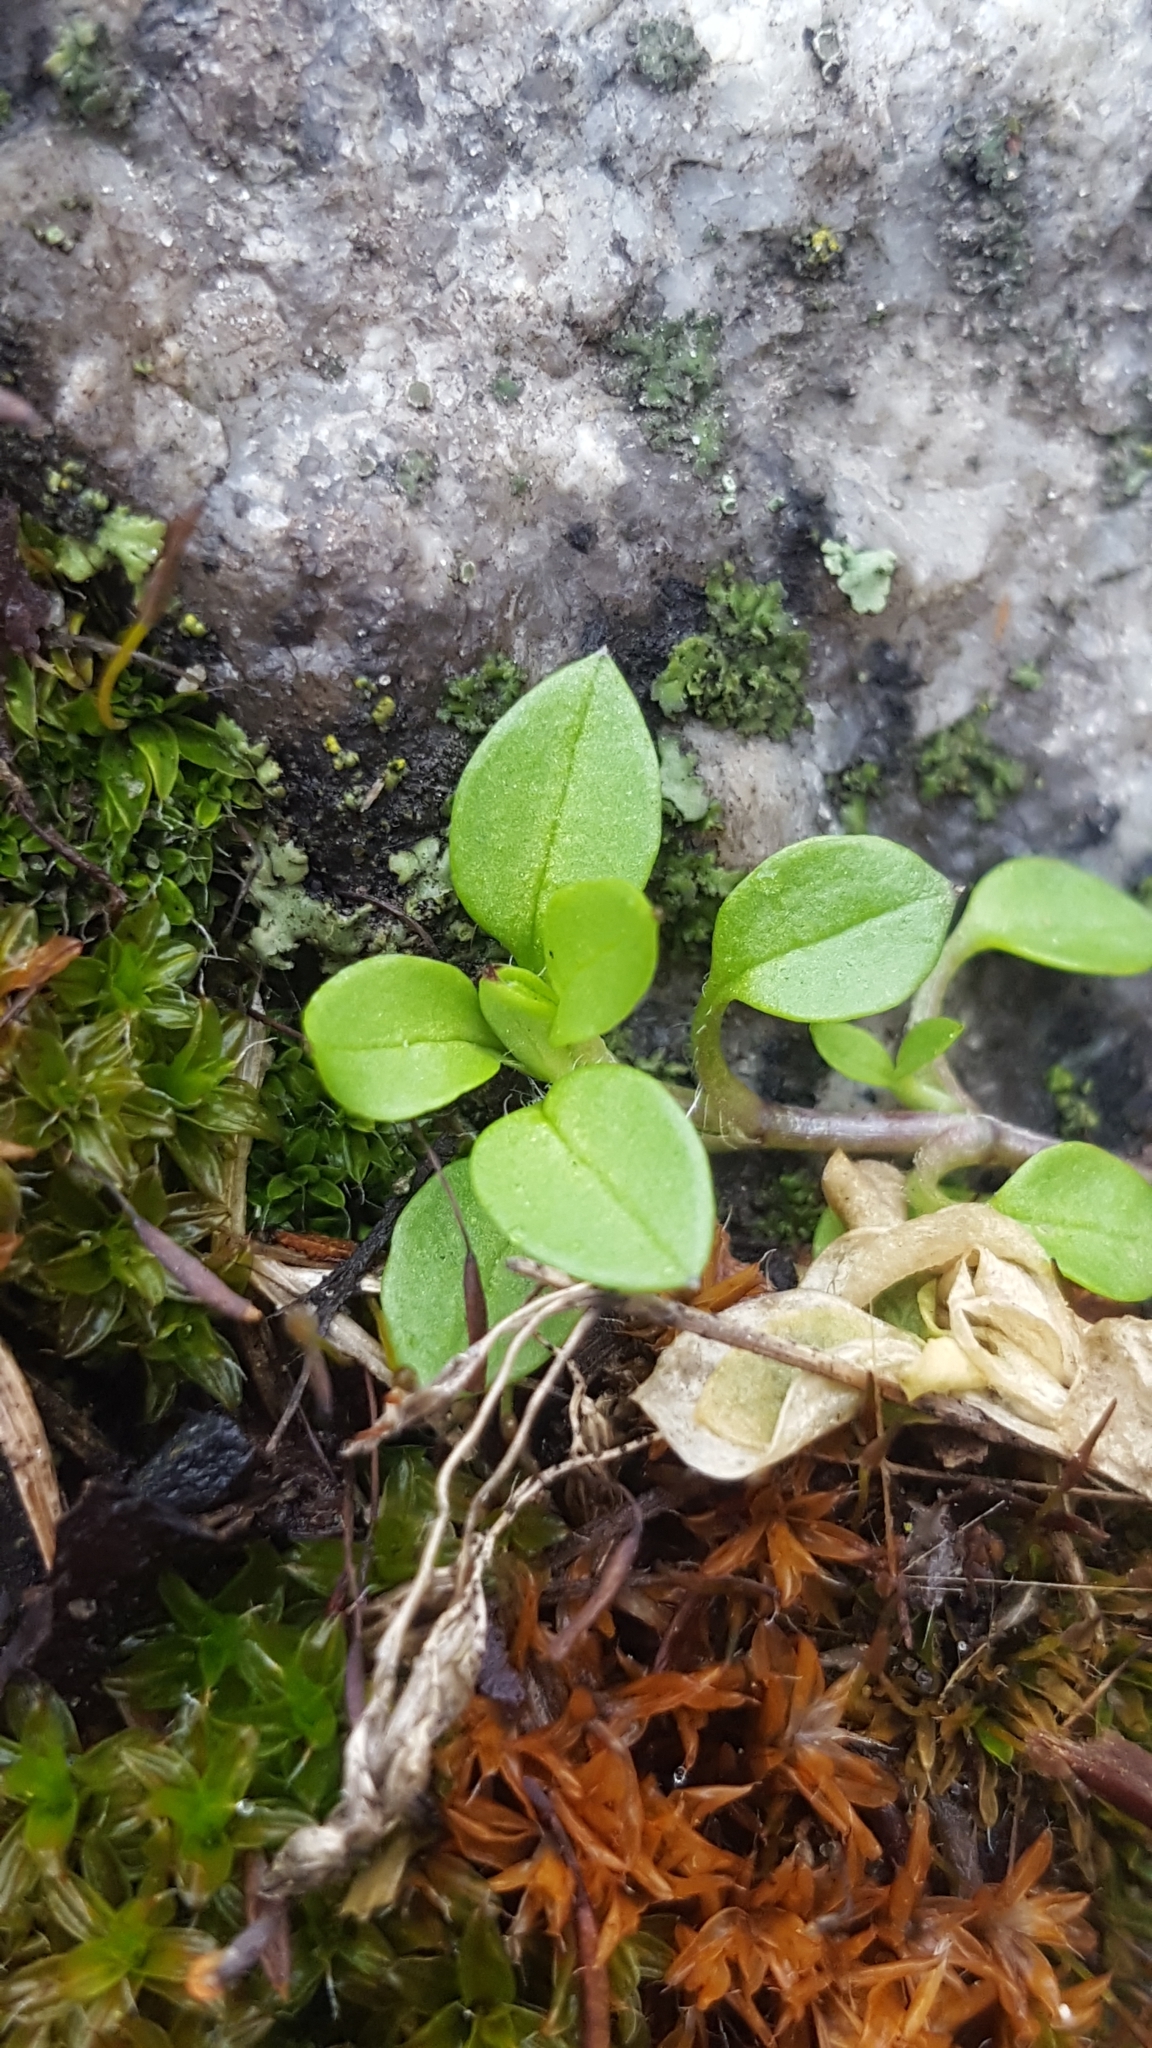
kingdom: Plantae
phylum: Tracheophyta
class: Magnoliopsida
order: Caryophyllales
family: Caryophyllaceae
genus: Stellaria
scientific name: Stellaria media
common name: Common chickweed
